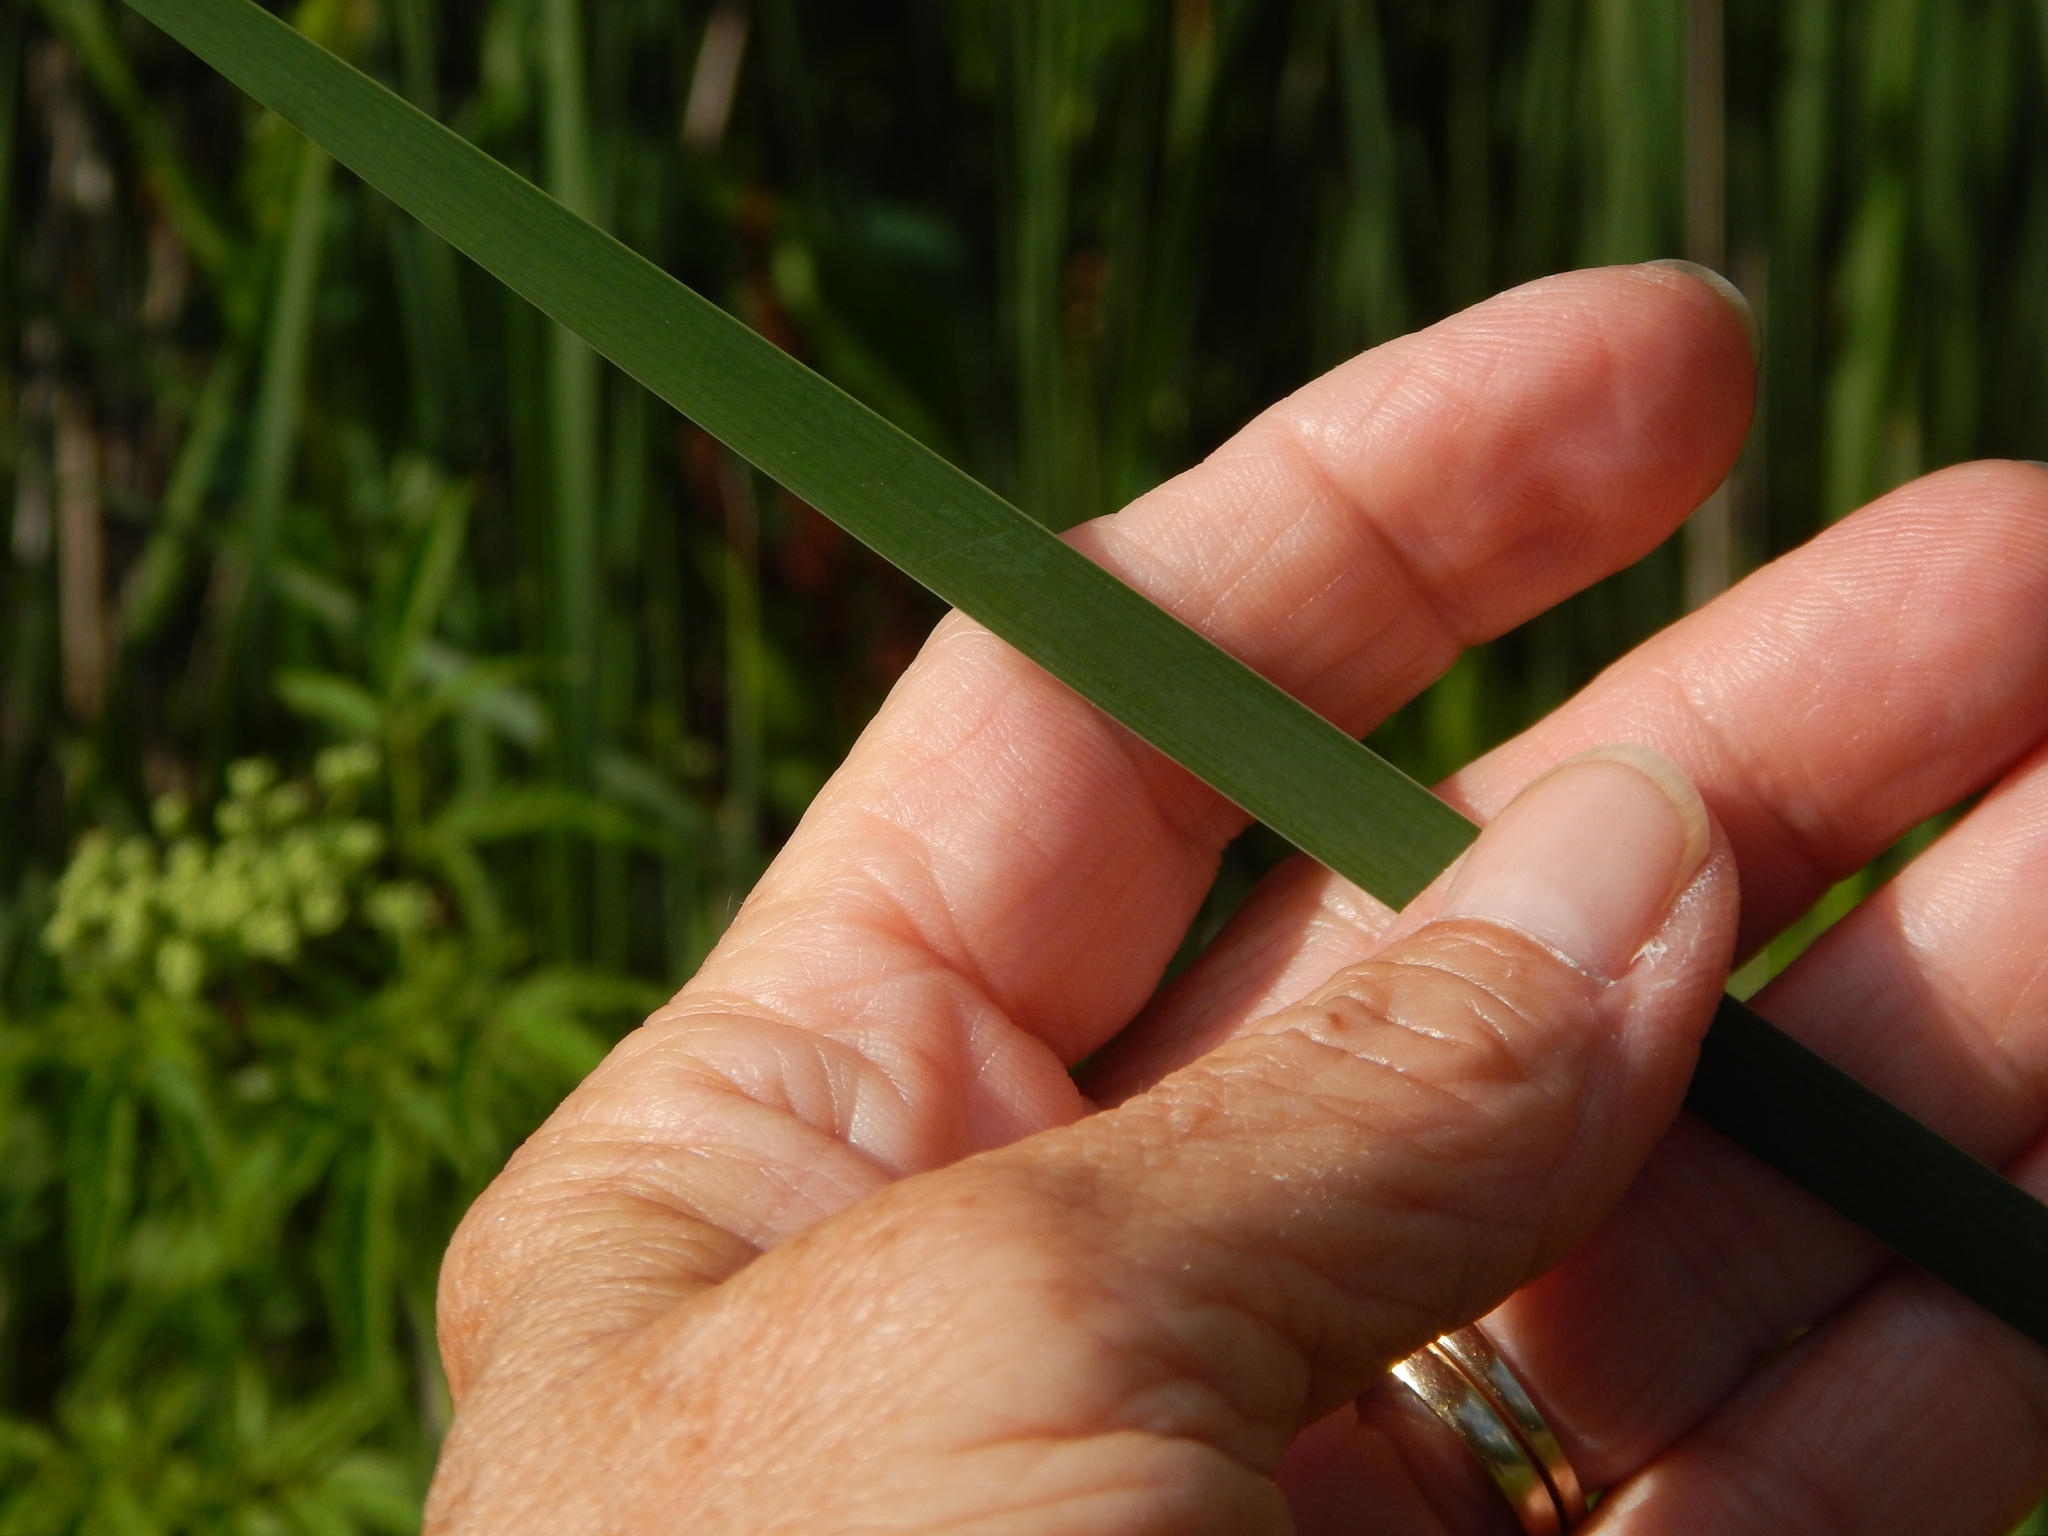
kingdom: Plantae
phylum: Tracheophyta
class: Liliopsida
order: Poales
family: Typhaceae
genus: Typha
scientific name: Typha angustifolia
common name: Lesser bulrush
